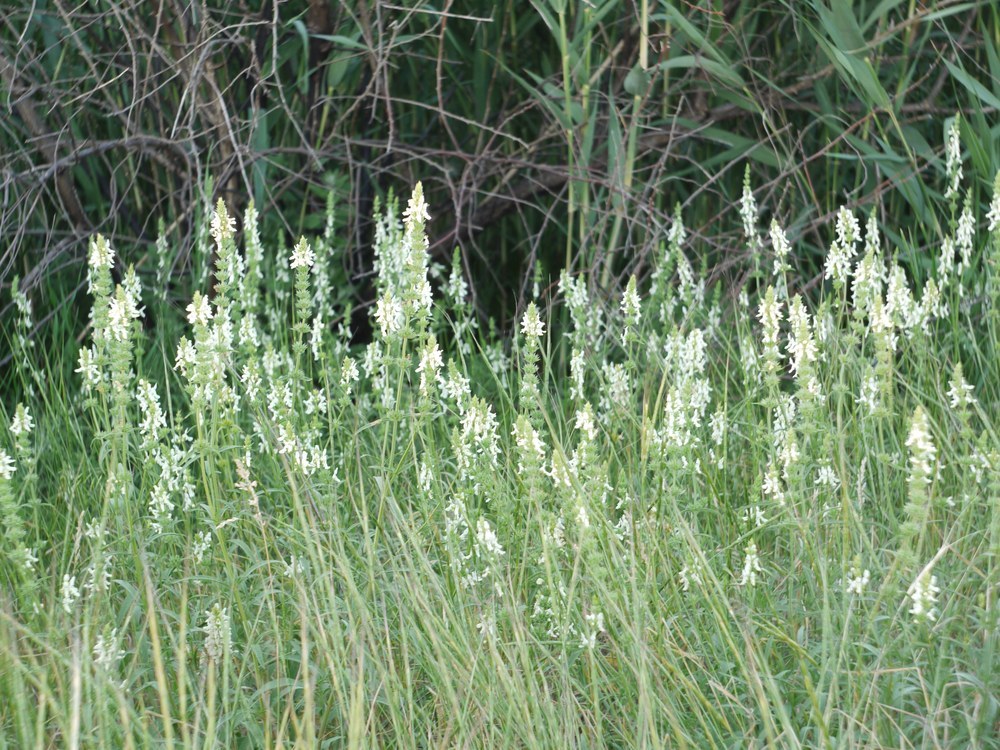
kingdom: Plantae
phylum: Tracheophyta
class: Magnoliopsida
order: Fabales
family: Fabaceae
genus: Melilotus
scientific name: Melilotus albus
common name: White melilot
